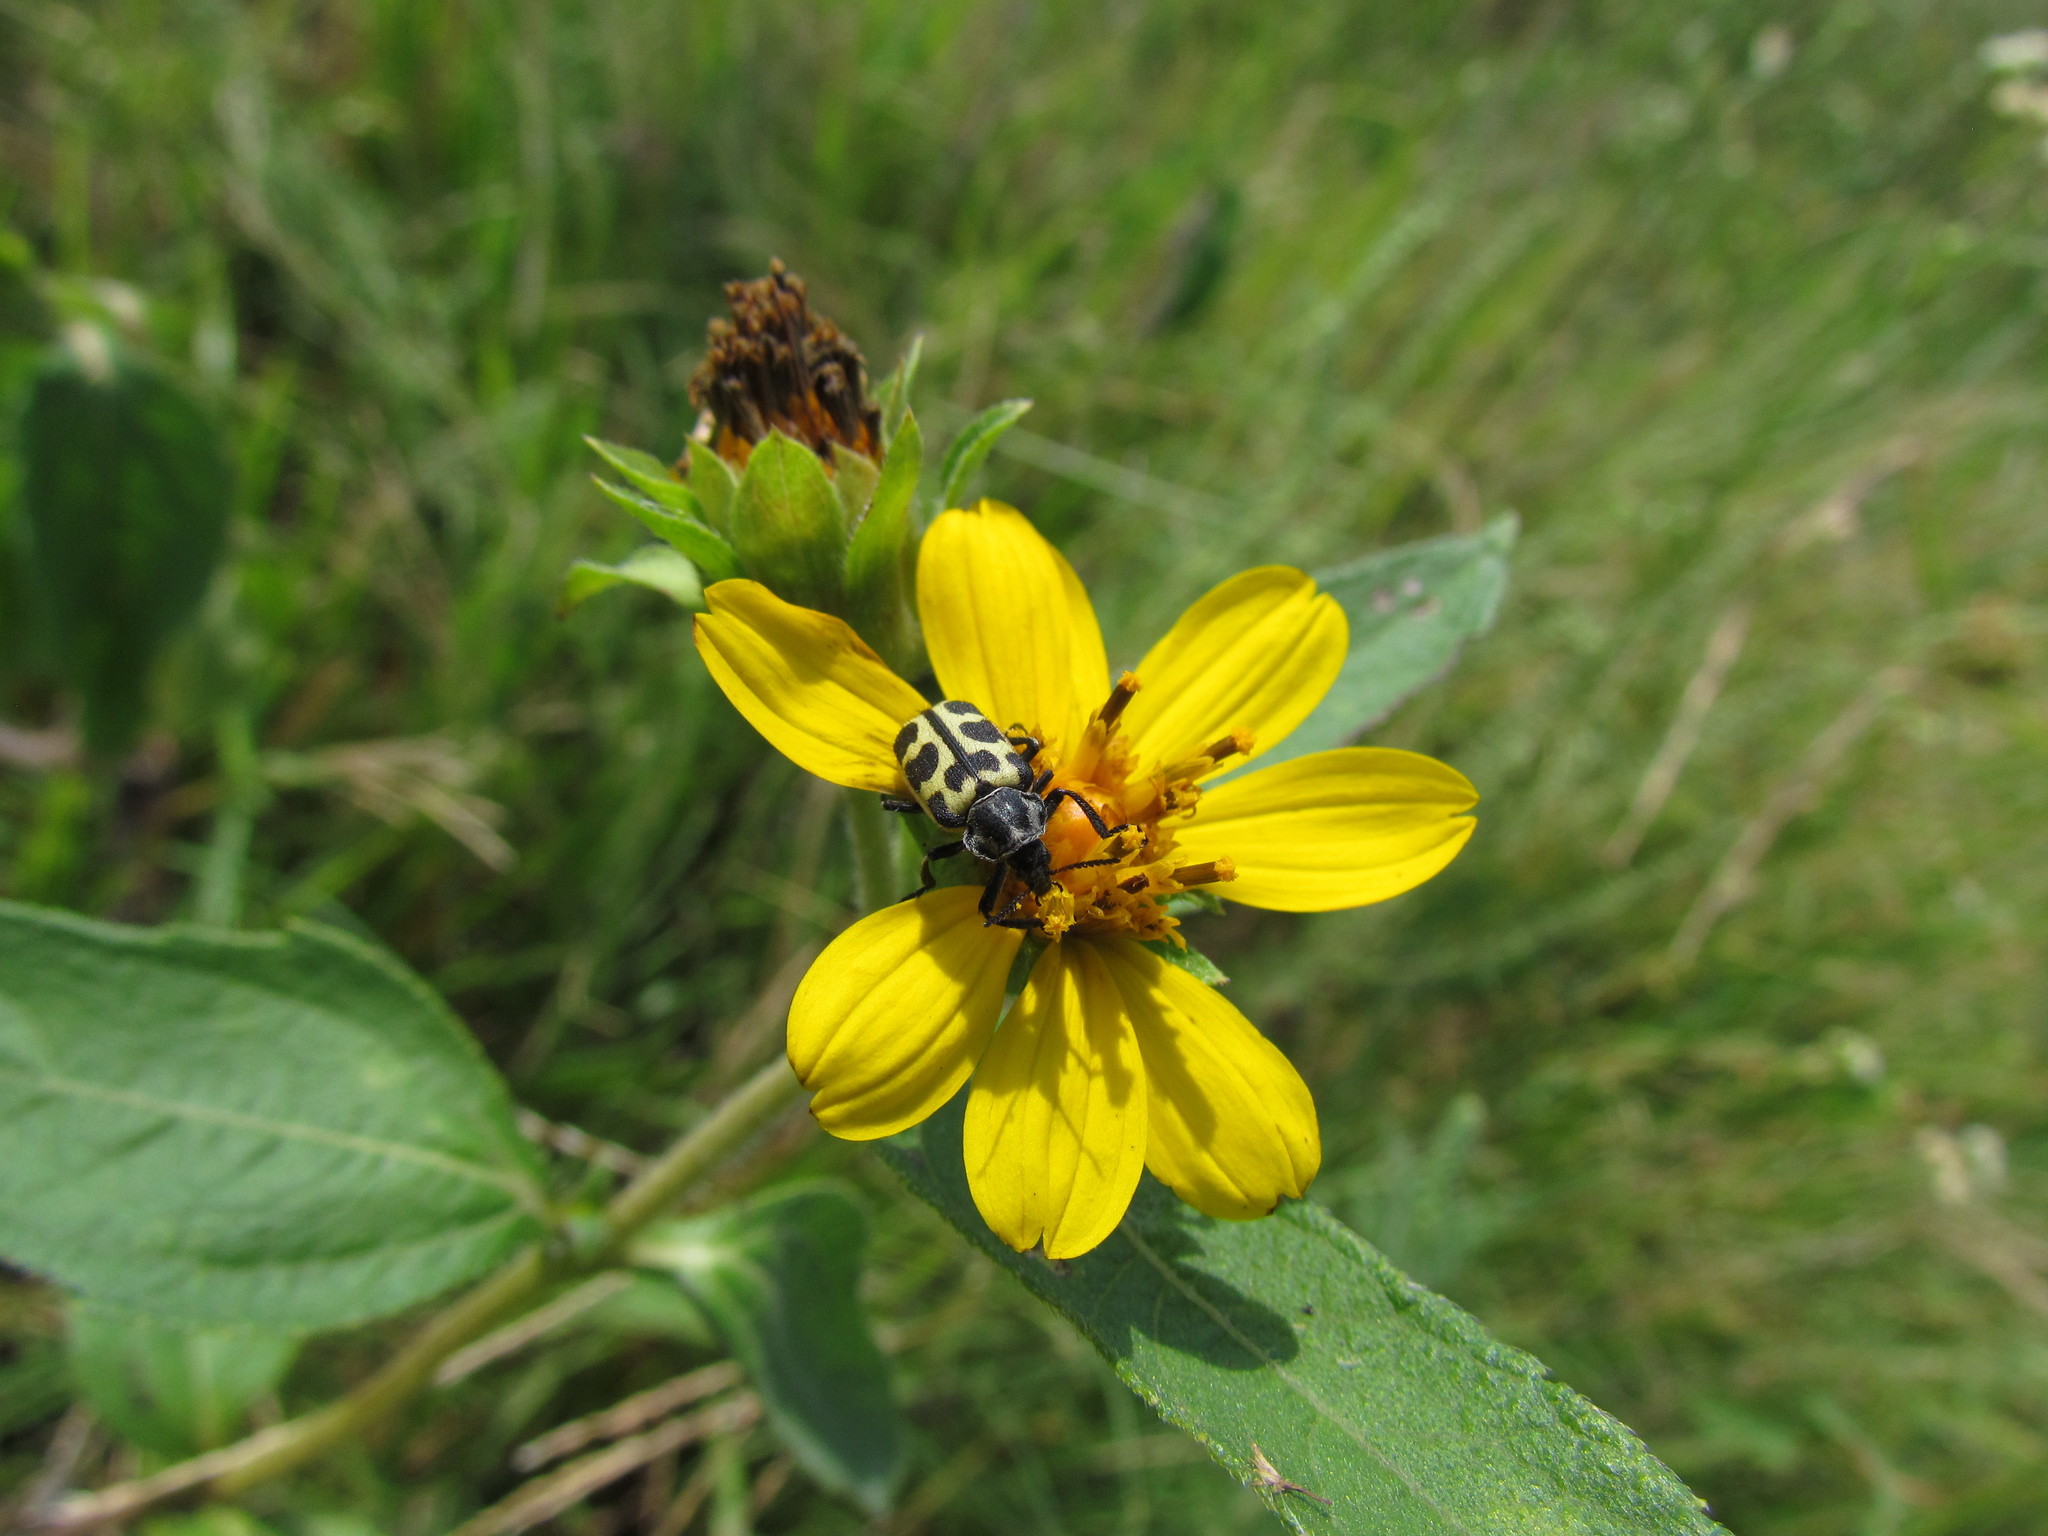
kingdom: Animalia
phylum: Arthropoda
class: Insecta
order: Coleoptera
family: Melyridae
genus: Astylus
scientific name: Astylus atromaculatus
